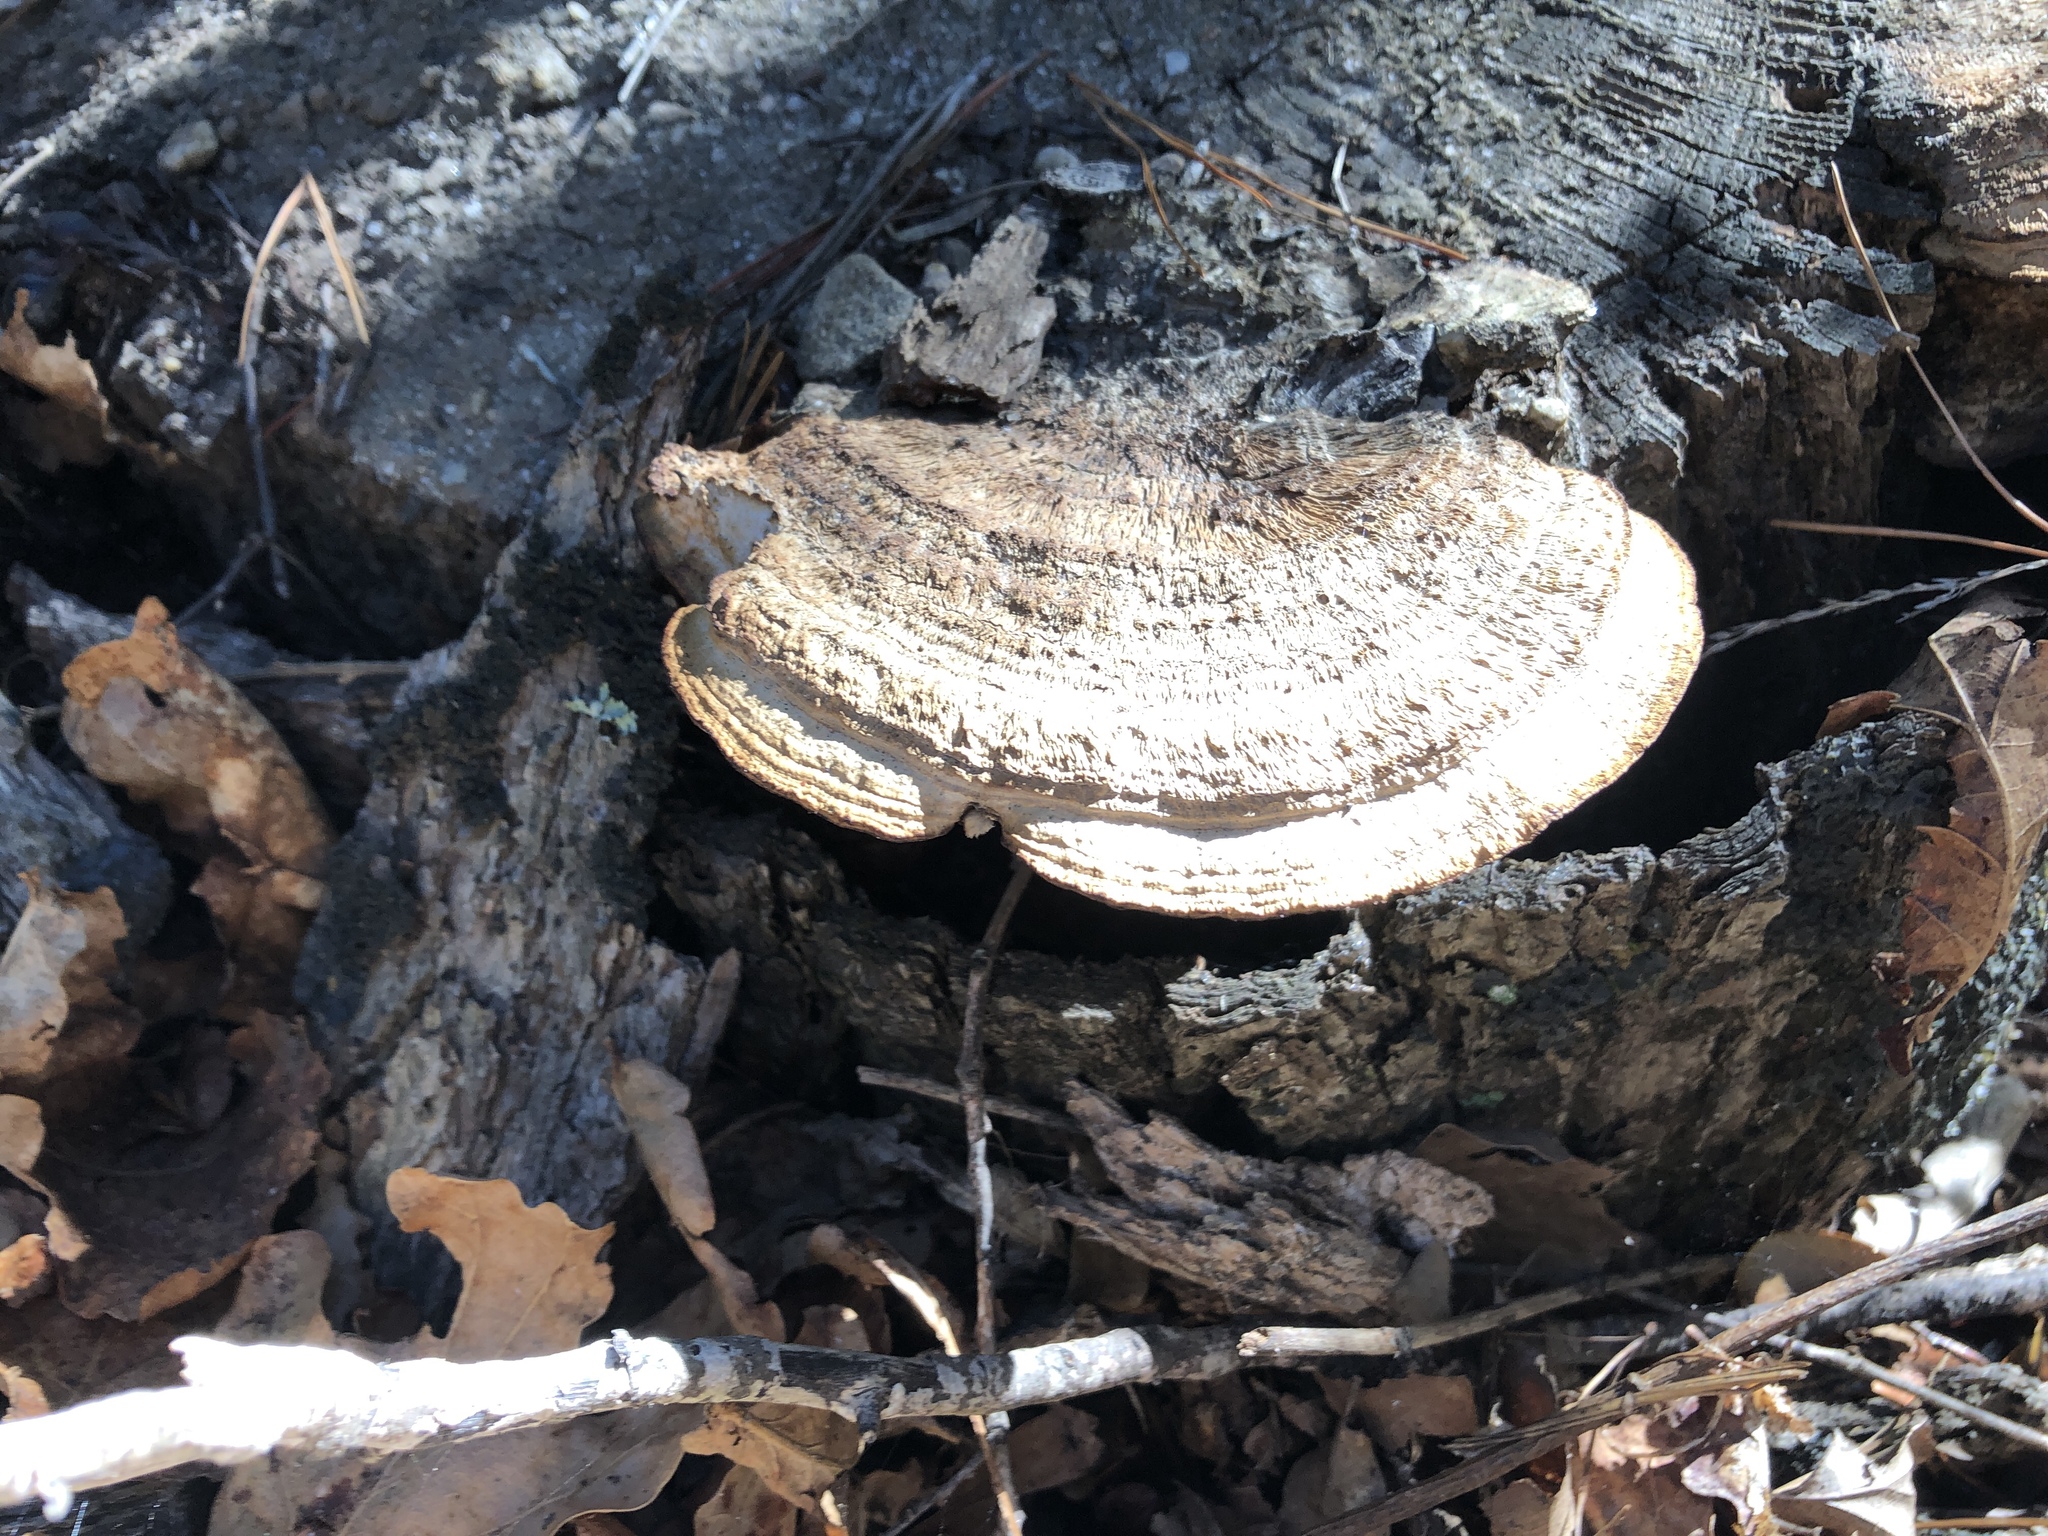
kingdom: Fungi
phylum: Basidiomycota
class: Agaricomycetes
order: Polyporales
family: Fomitopsidaceae
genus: Fomitopsis
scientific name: Fomitopsis
